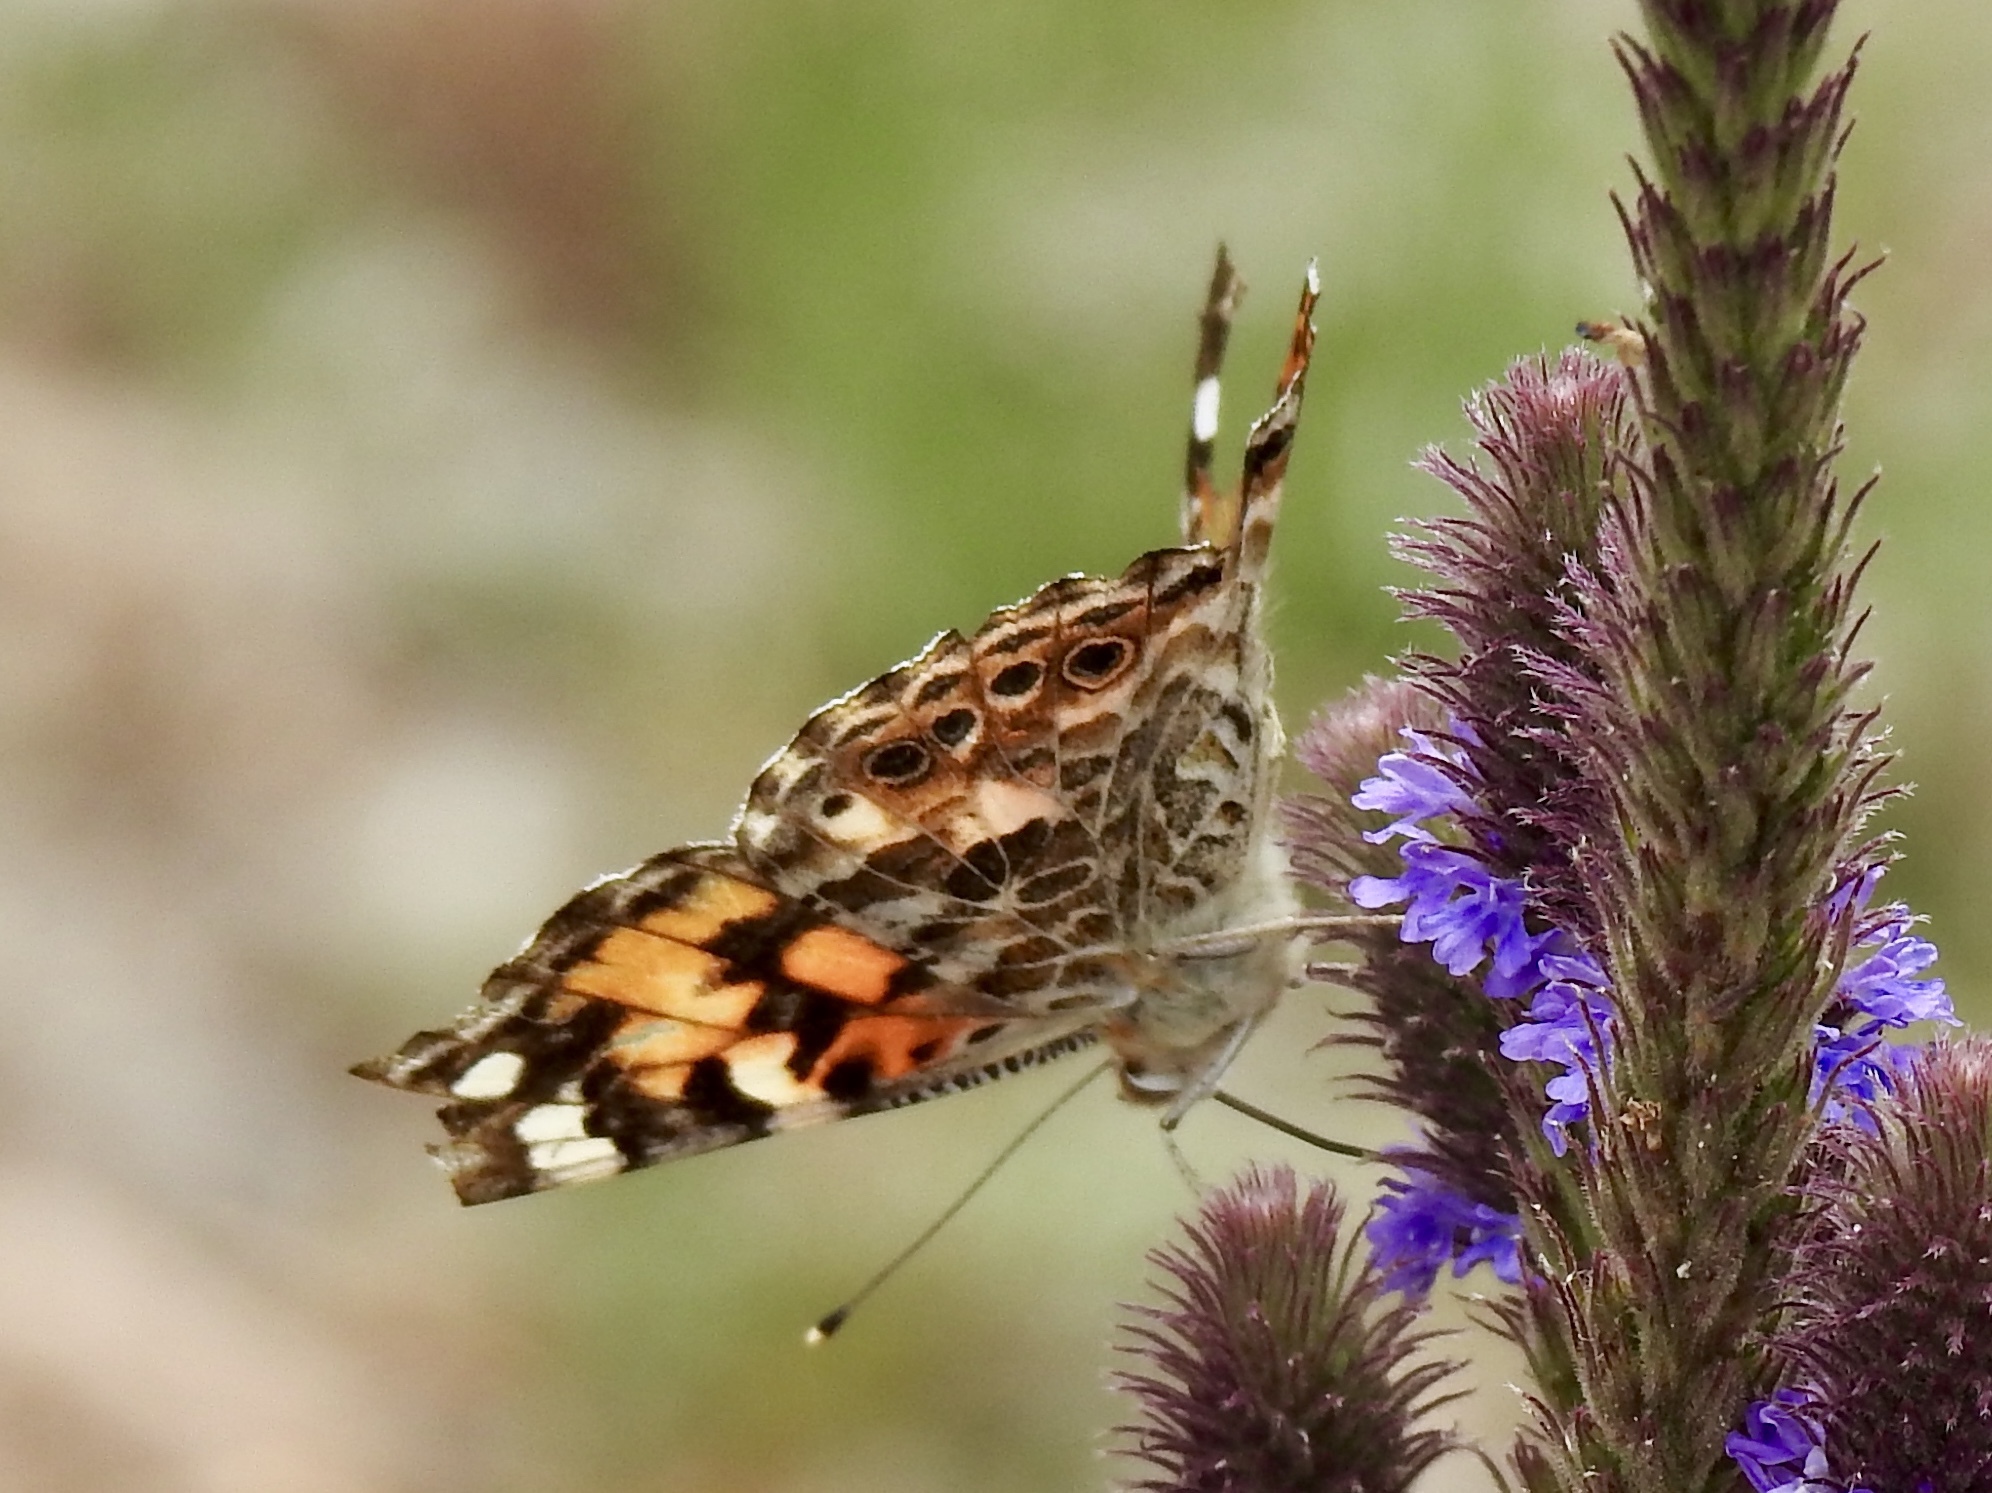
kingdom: Animalia
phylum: Arthropoda
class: Insecta
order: Lepidoptera
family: Nymphalidae
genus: Vanessa
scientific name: Vanessa cardui
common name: Painted lady
